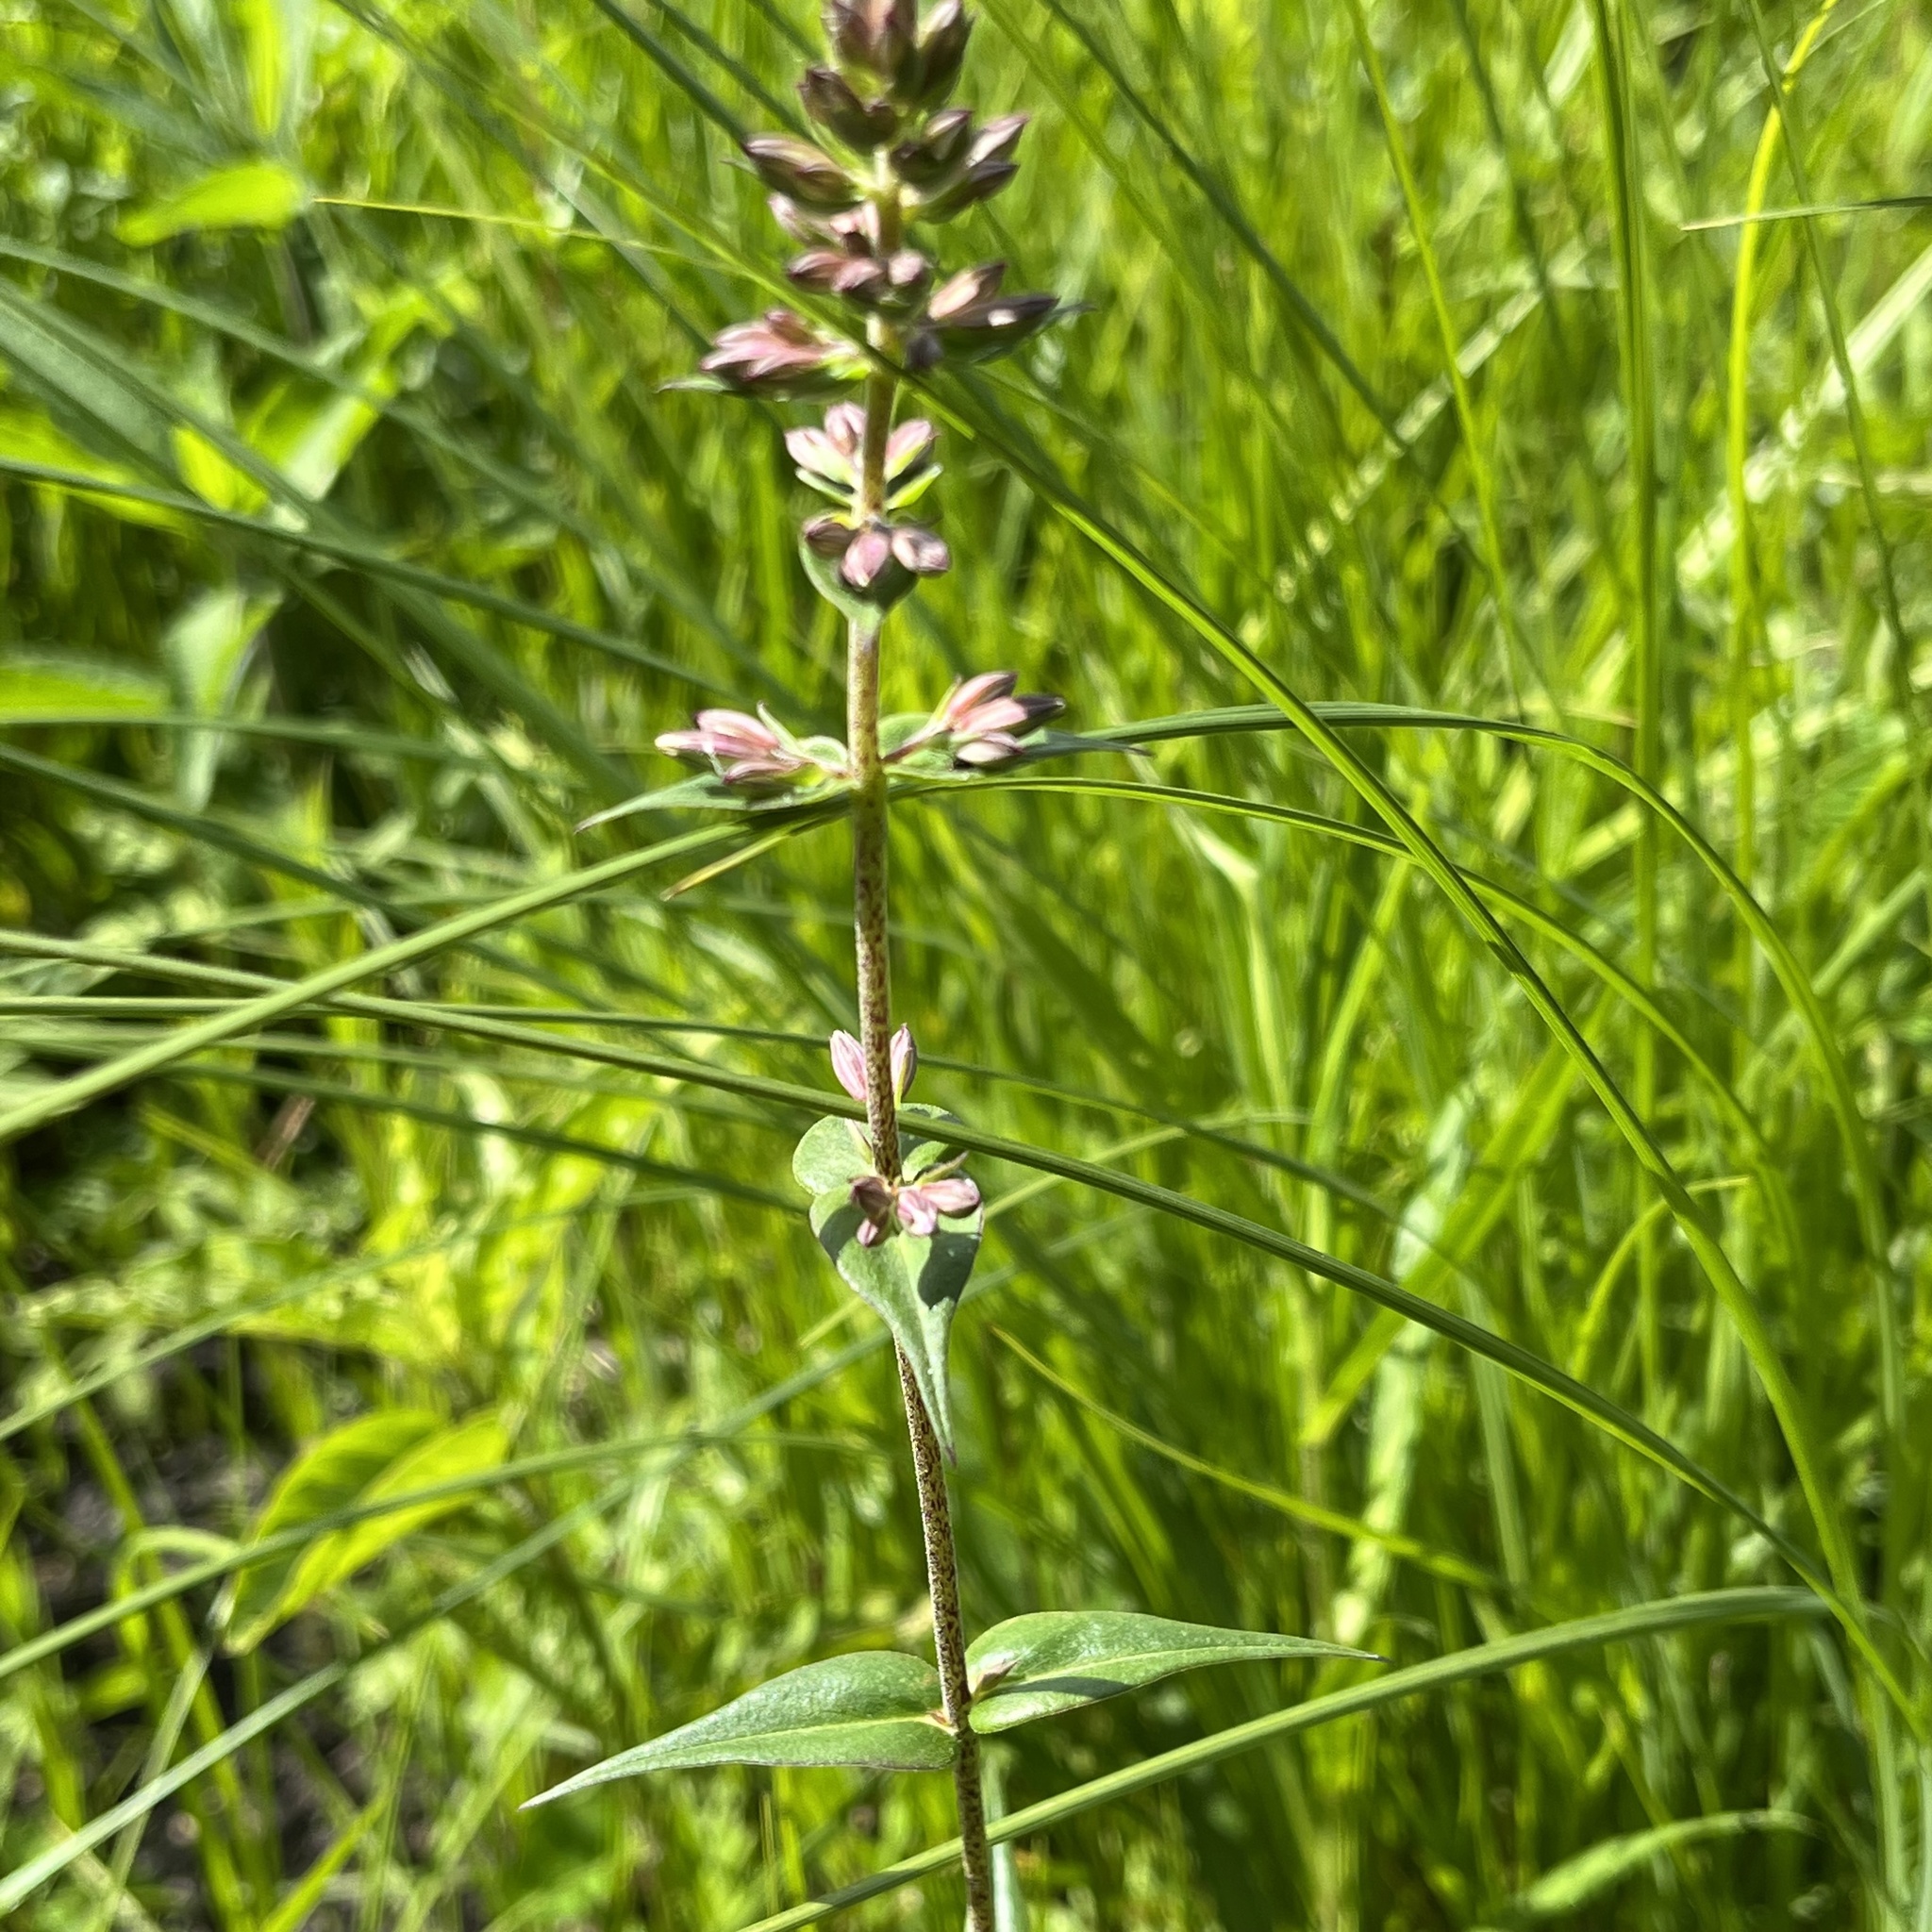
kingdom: Plantae
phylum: Tracheophyta
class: Magnoliopsida
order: Ericales
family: Polemoniaceae
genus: Phlox
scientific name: Phlox maculata
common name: Meadow phlox
